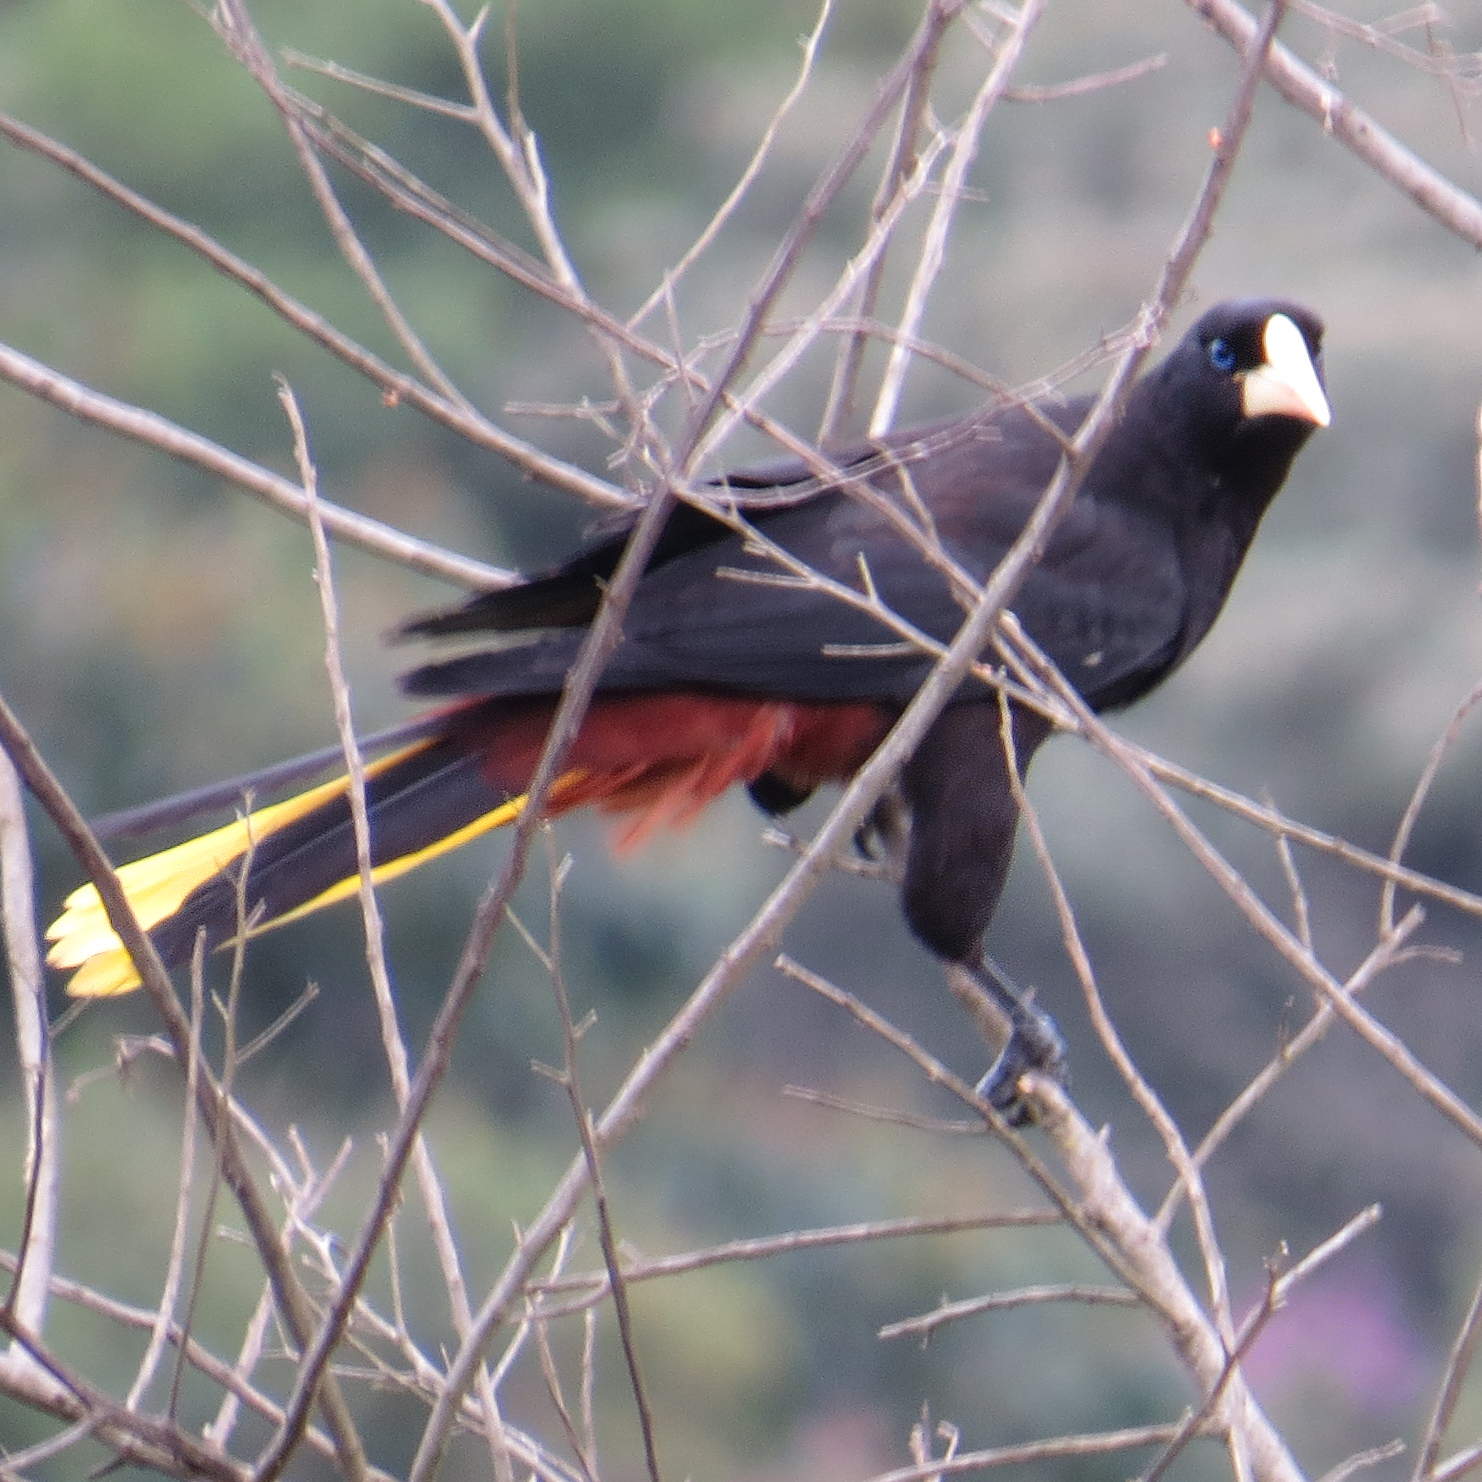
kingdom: Animalia
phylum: Chordata
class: Aves
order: Passeriformes
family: Icteridae
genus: Psarocolius
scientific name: Psarocolius decumanus
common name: Crested oropendola
